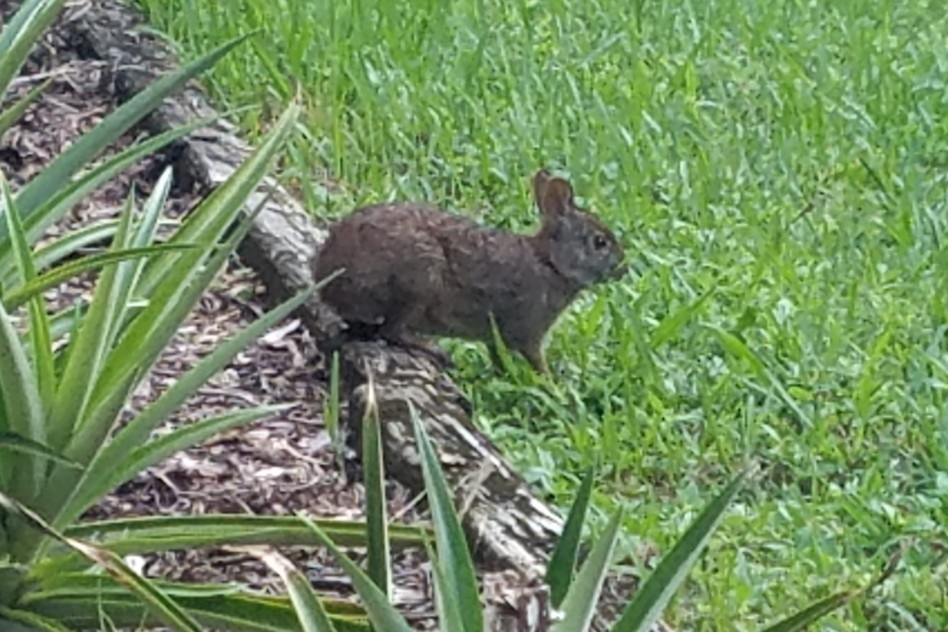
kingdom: Animalia
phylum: Chordata
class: Mammalia
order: Lagomorpha
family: Leporidae
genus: Sylvilagus
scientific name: Sylvilagus palustris
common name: Marsh rabbit
